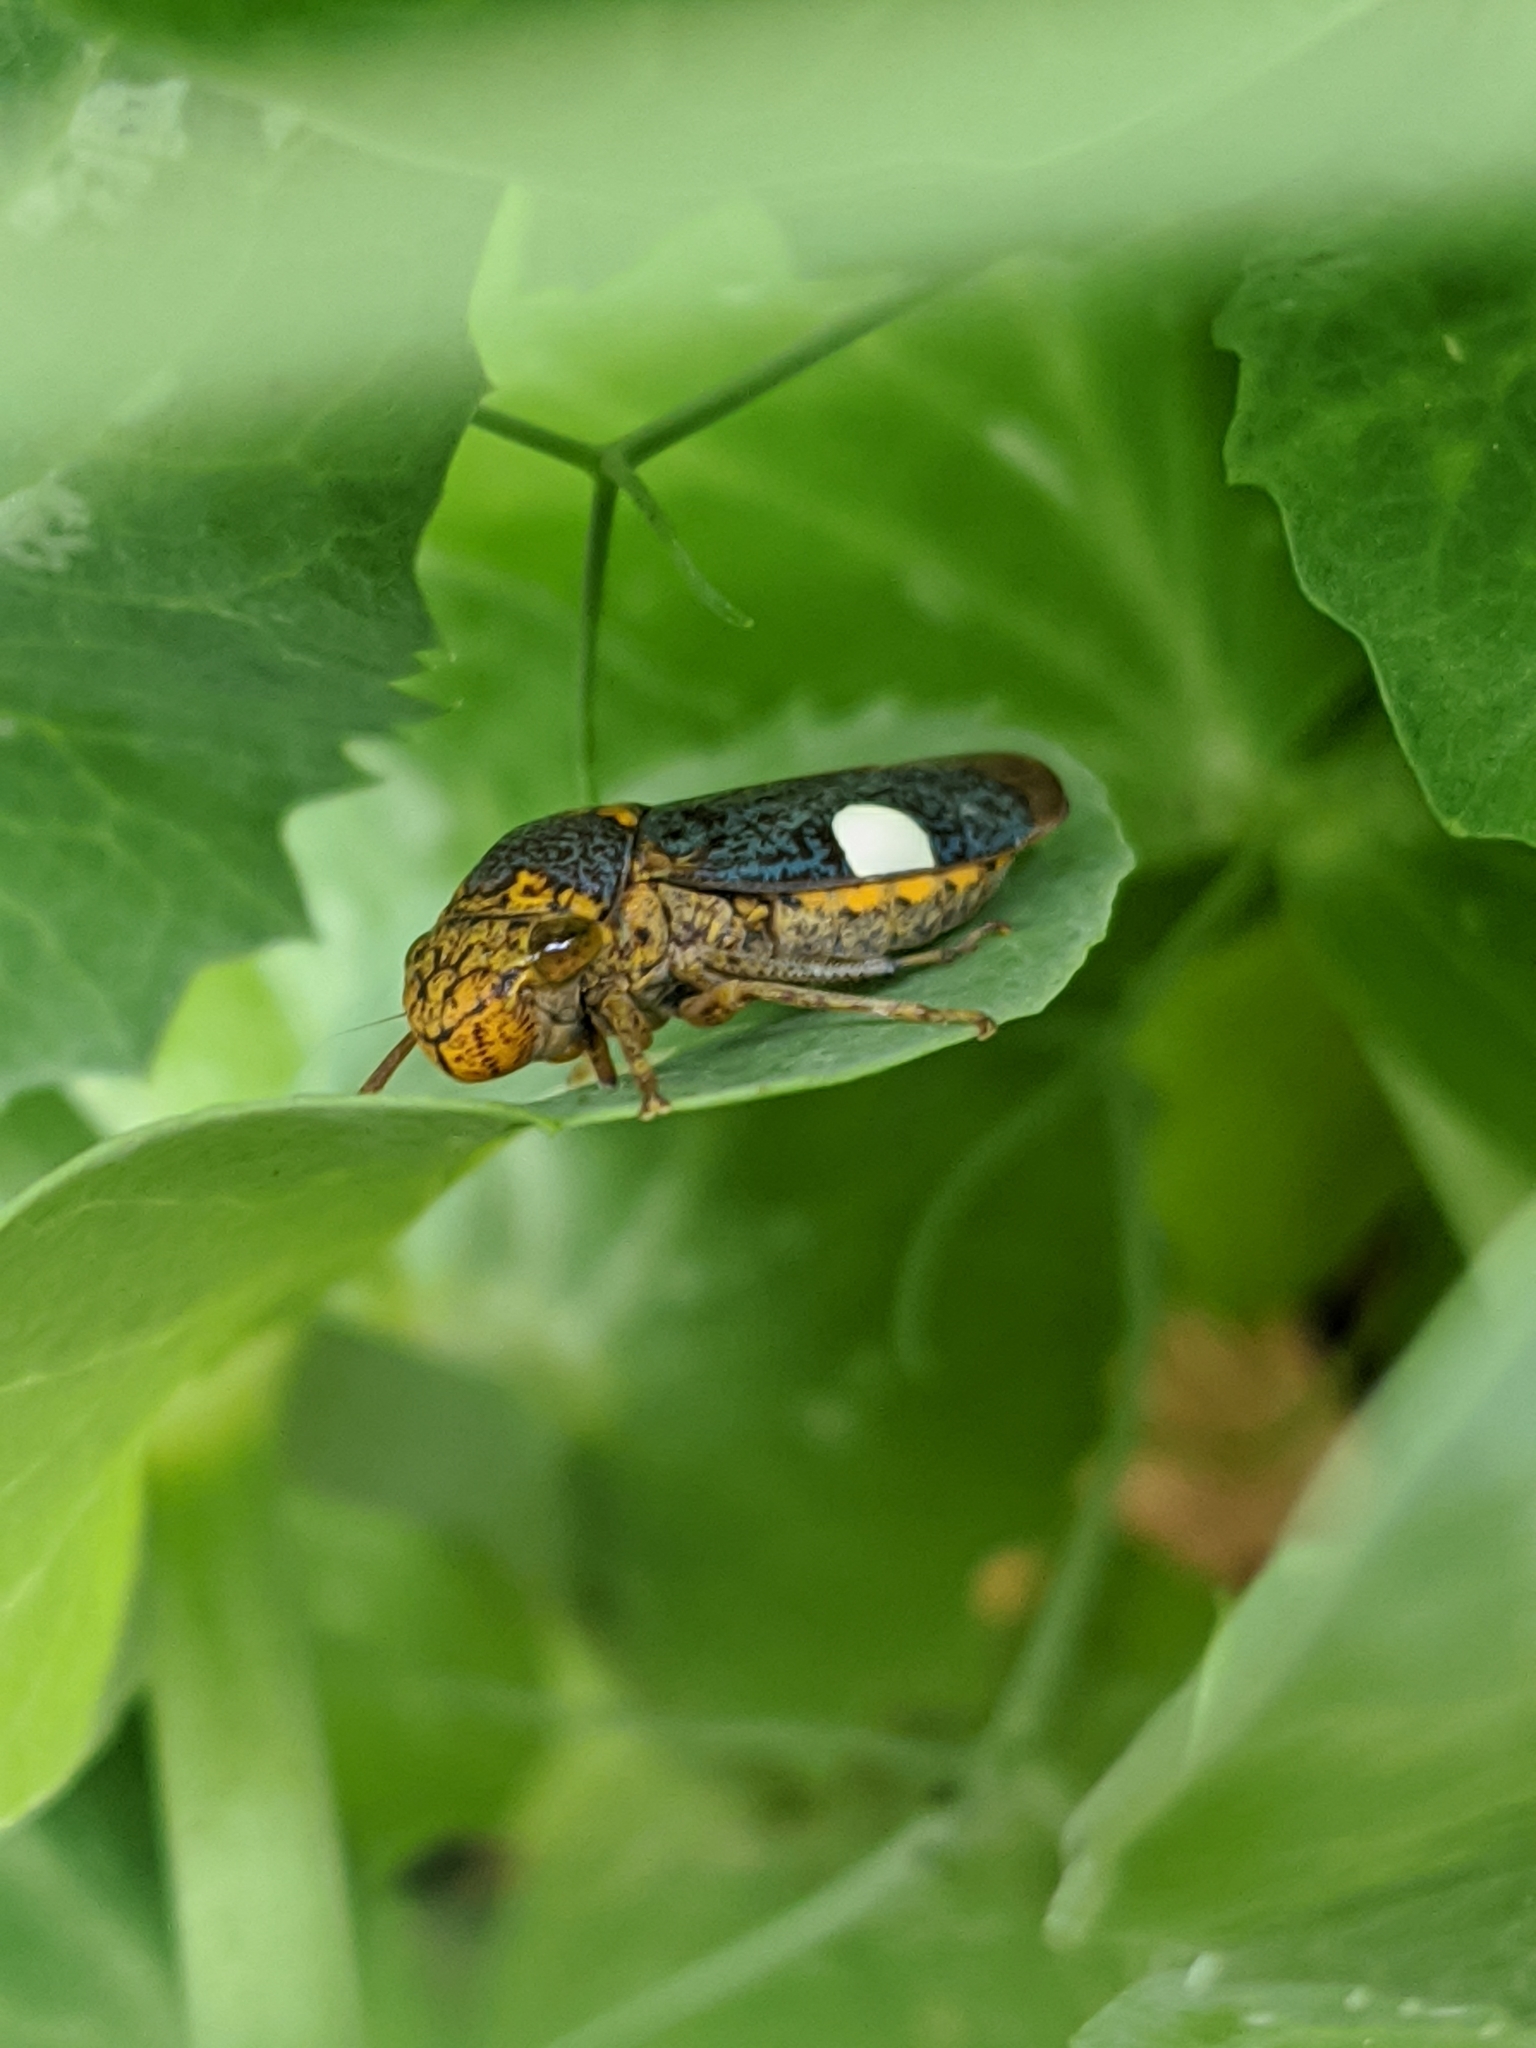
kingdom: Animalia
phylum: Arthropoda
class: Insecta
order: Hemiptera
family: Cicadellidae
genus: Oncometopia
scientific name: Oncometopia orbona
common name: Broad-headed sharpshooter
